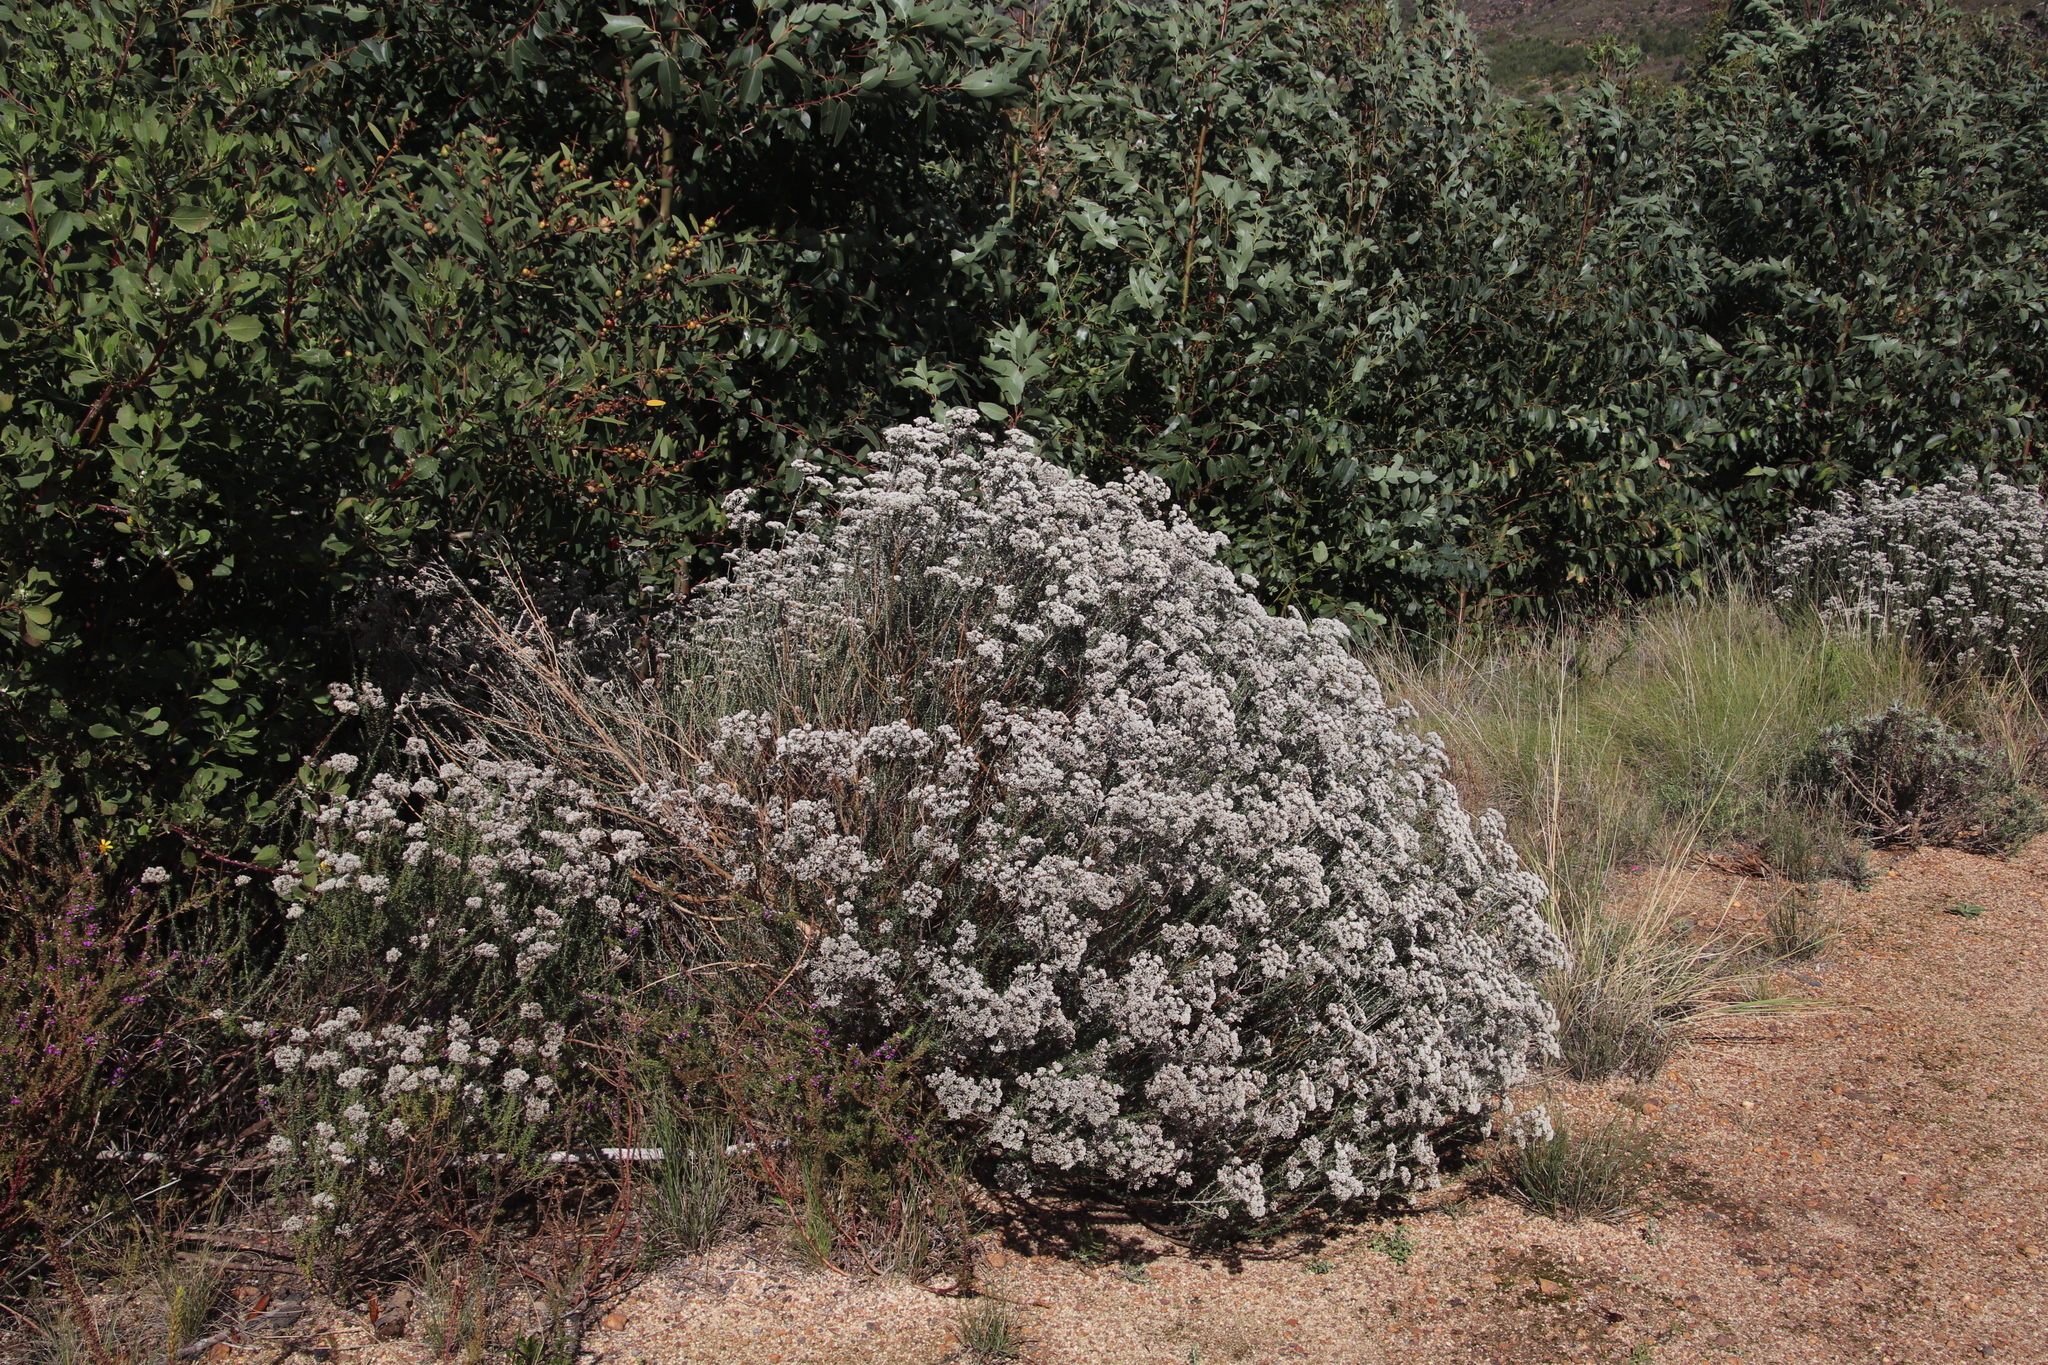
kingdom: Plantae
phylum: Tracheophyta
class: Magnoliopsida
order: Asterales
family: Asteraceae
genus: Metalasia
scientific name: Metalasia densa
